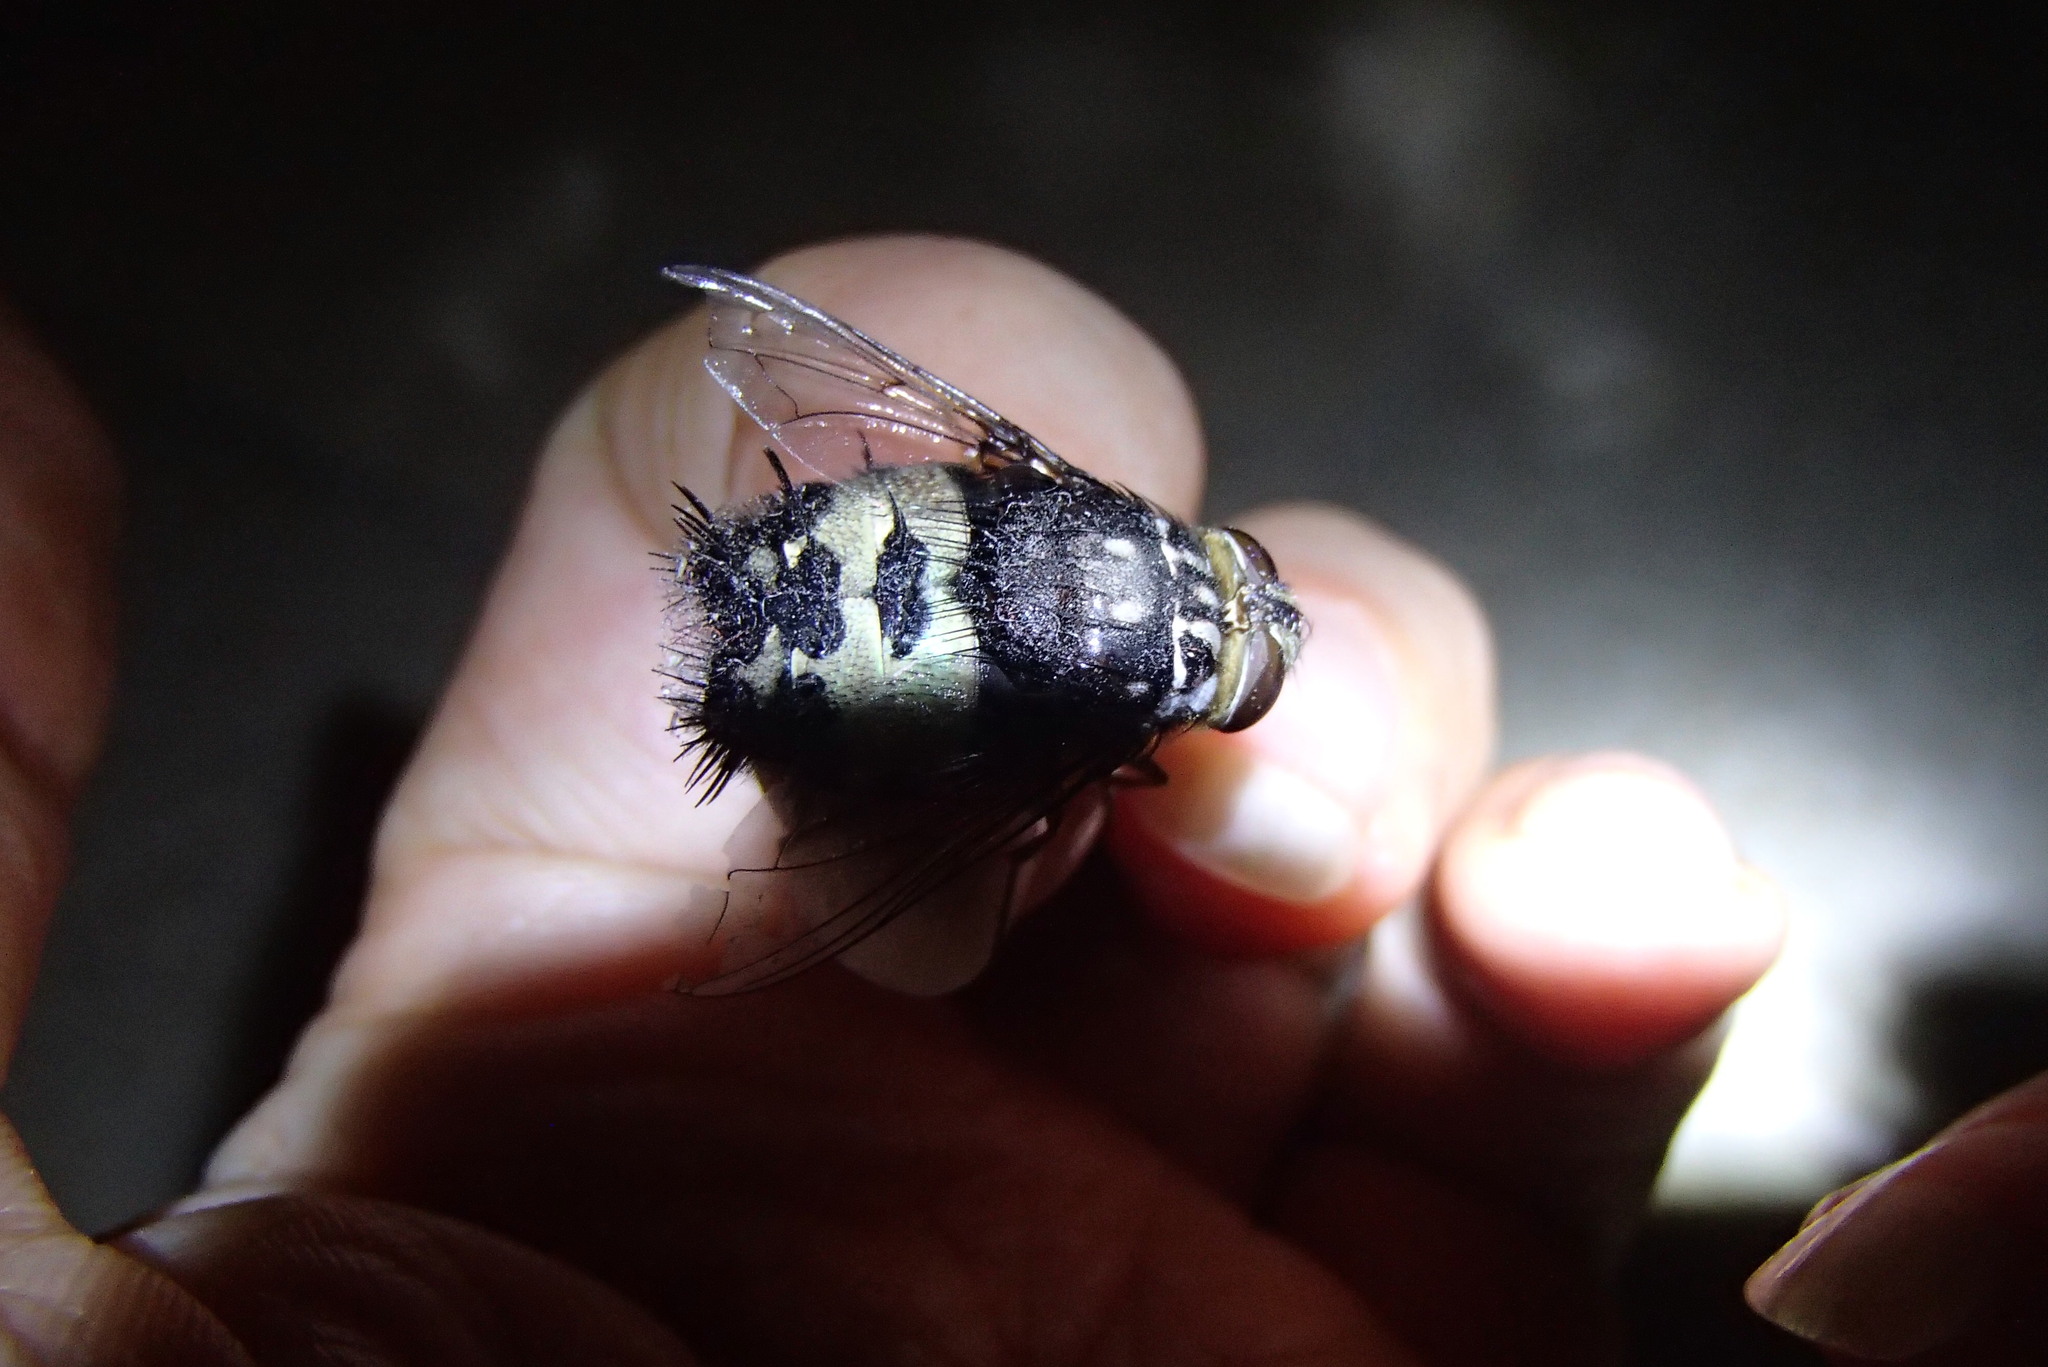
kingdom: Animalia
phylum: Arthropoda
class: Insecta
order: Diptera
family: Tachinidae
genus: Formosia
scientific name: Formosia speciosa
